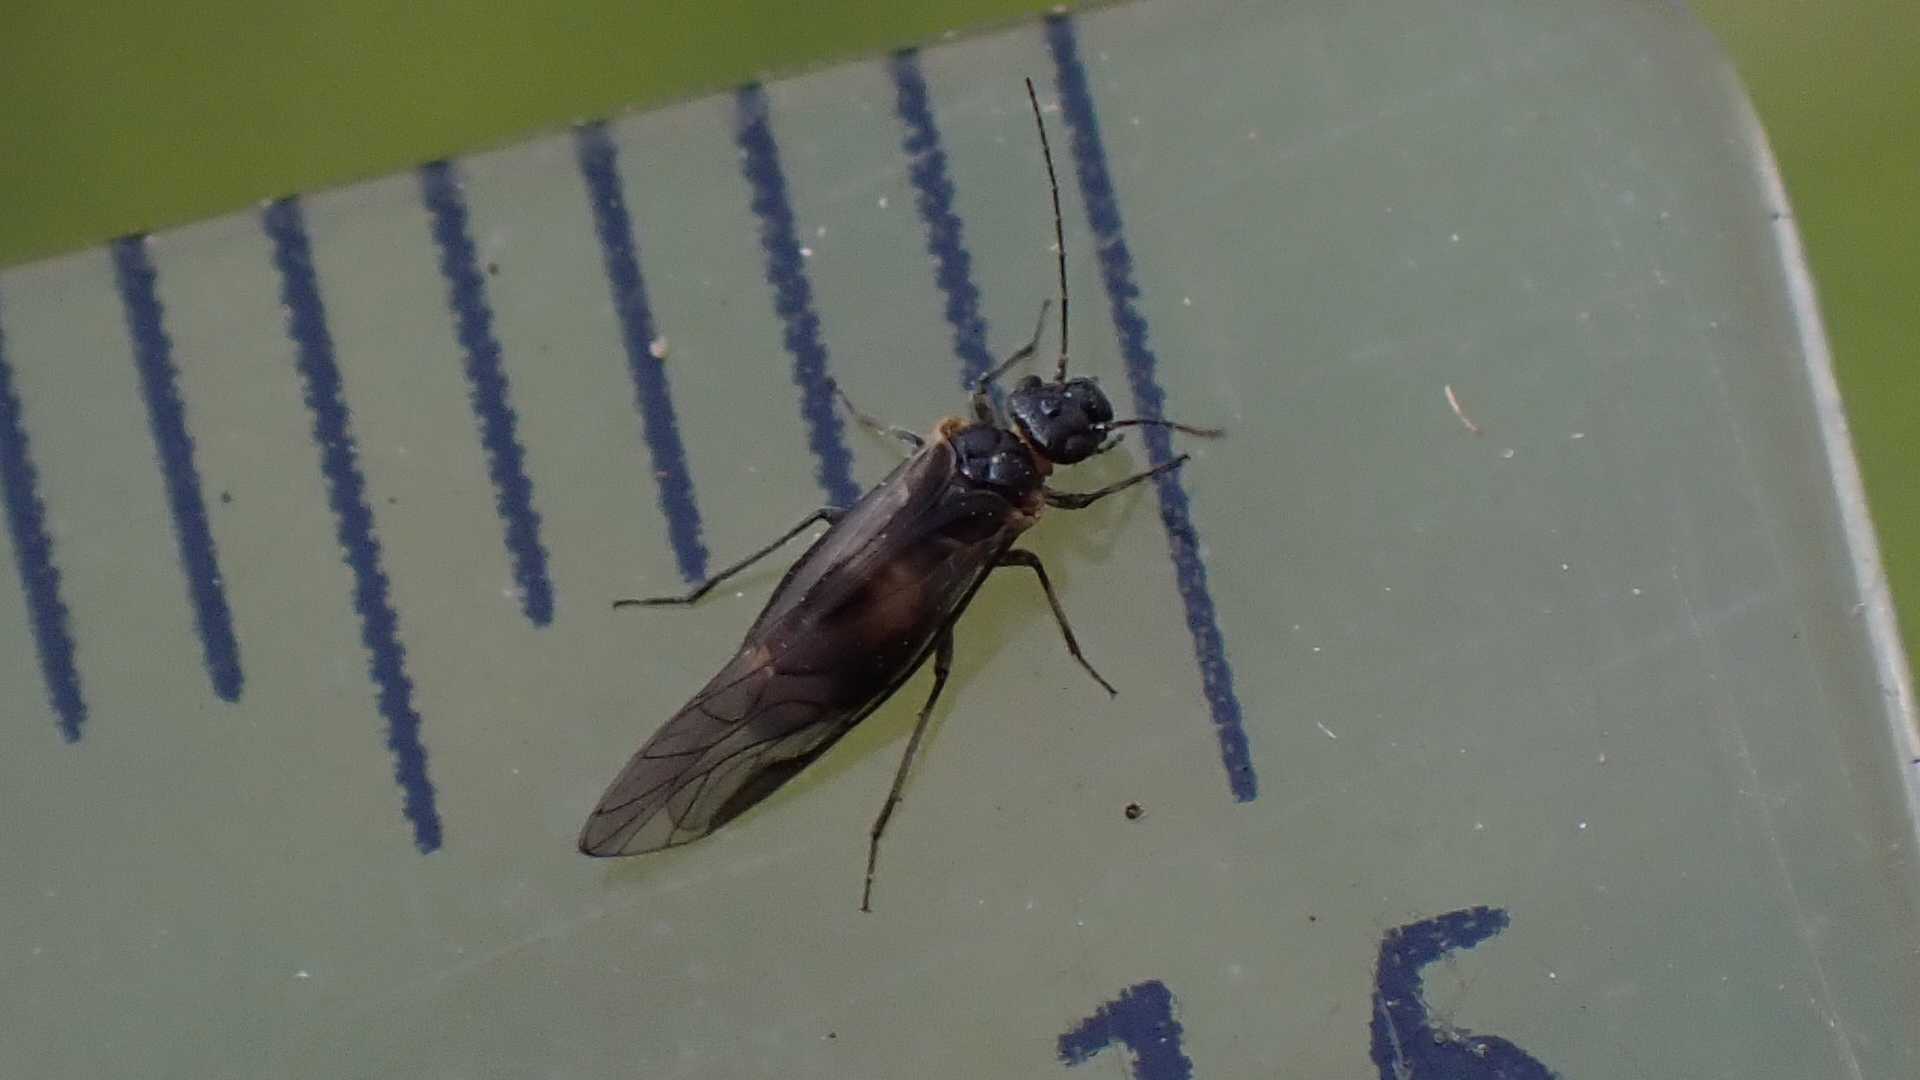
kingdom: Animalia
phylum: Arthropoda
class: Insecta
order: Psocodea
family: Elipsocidae
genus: Elipsocus
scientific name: Elipsocus hyalinus
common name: Bark lice
